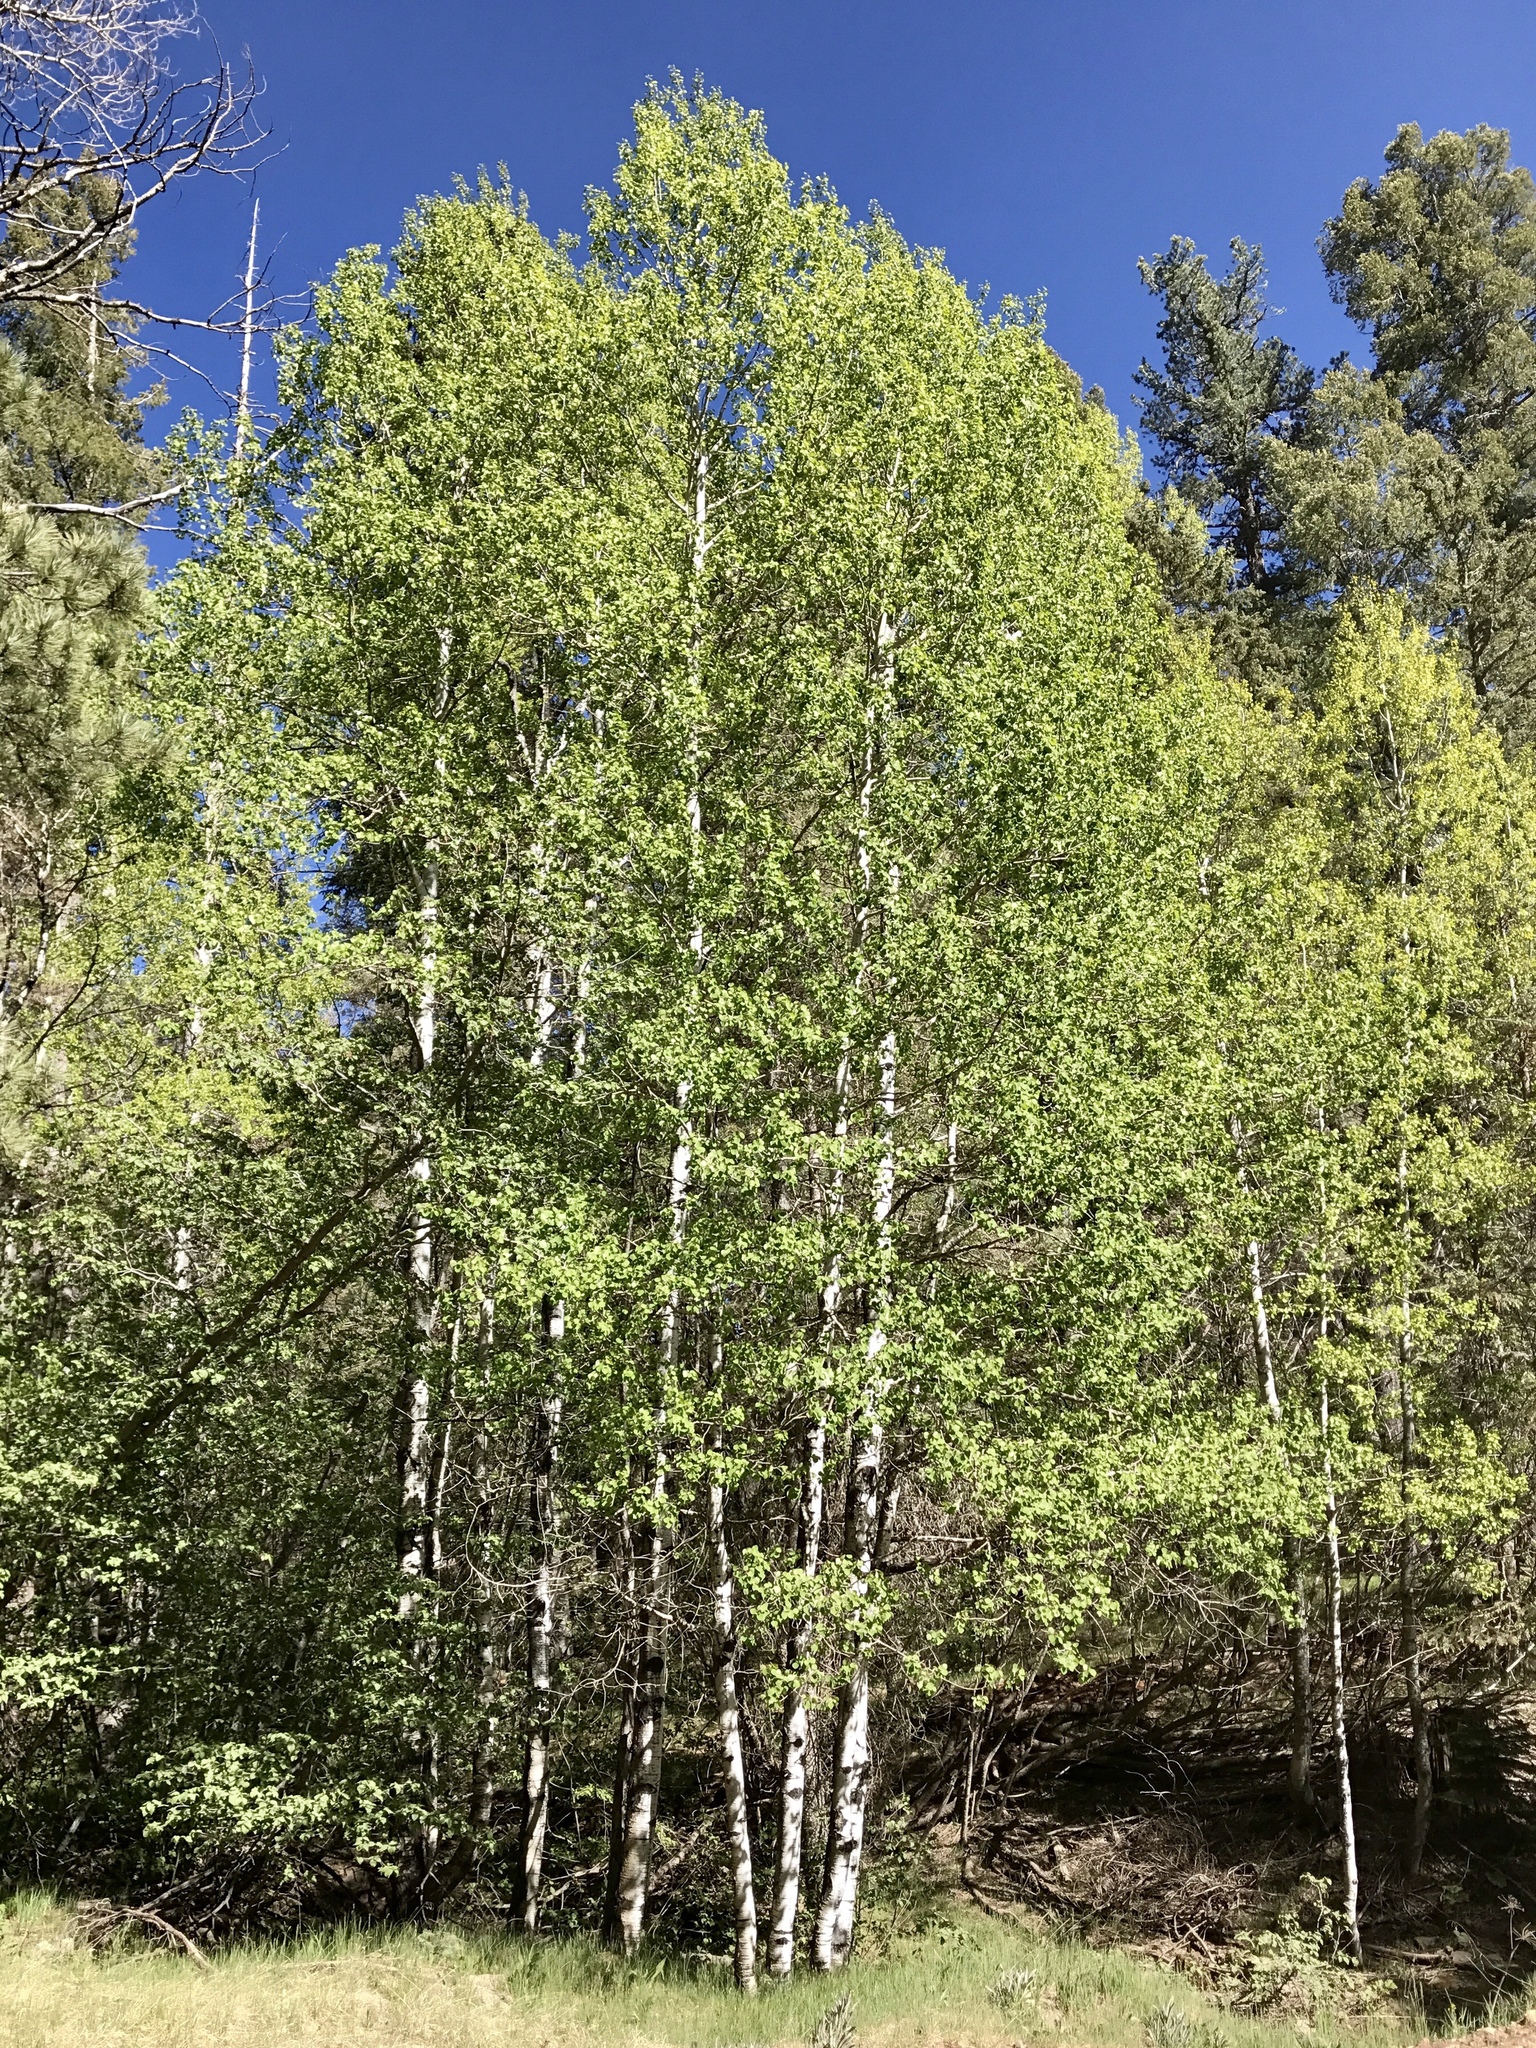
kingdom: Plantae
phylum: Tracheophyta
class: Magnoliopsida
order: Malpighiales
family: Salicaceae
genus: Populus
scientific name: Populus tremuloides
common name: Quaking aspen
